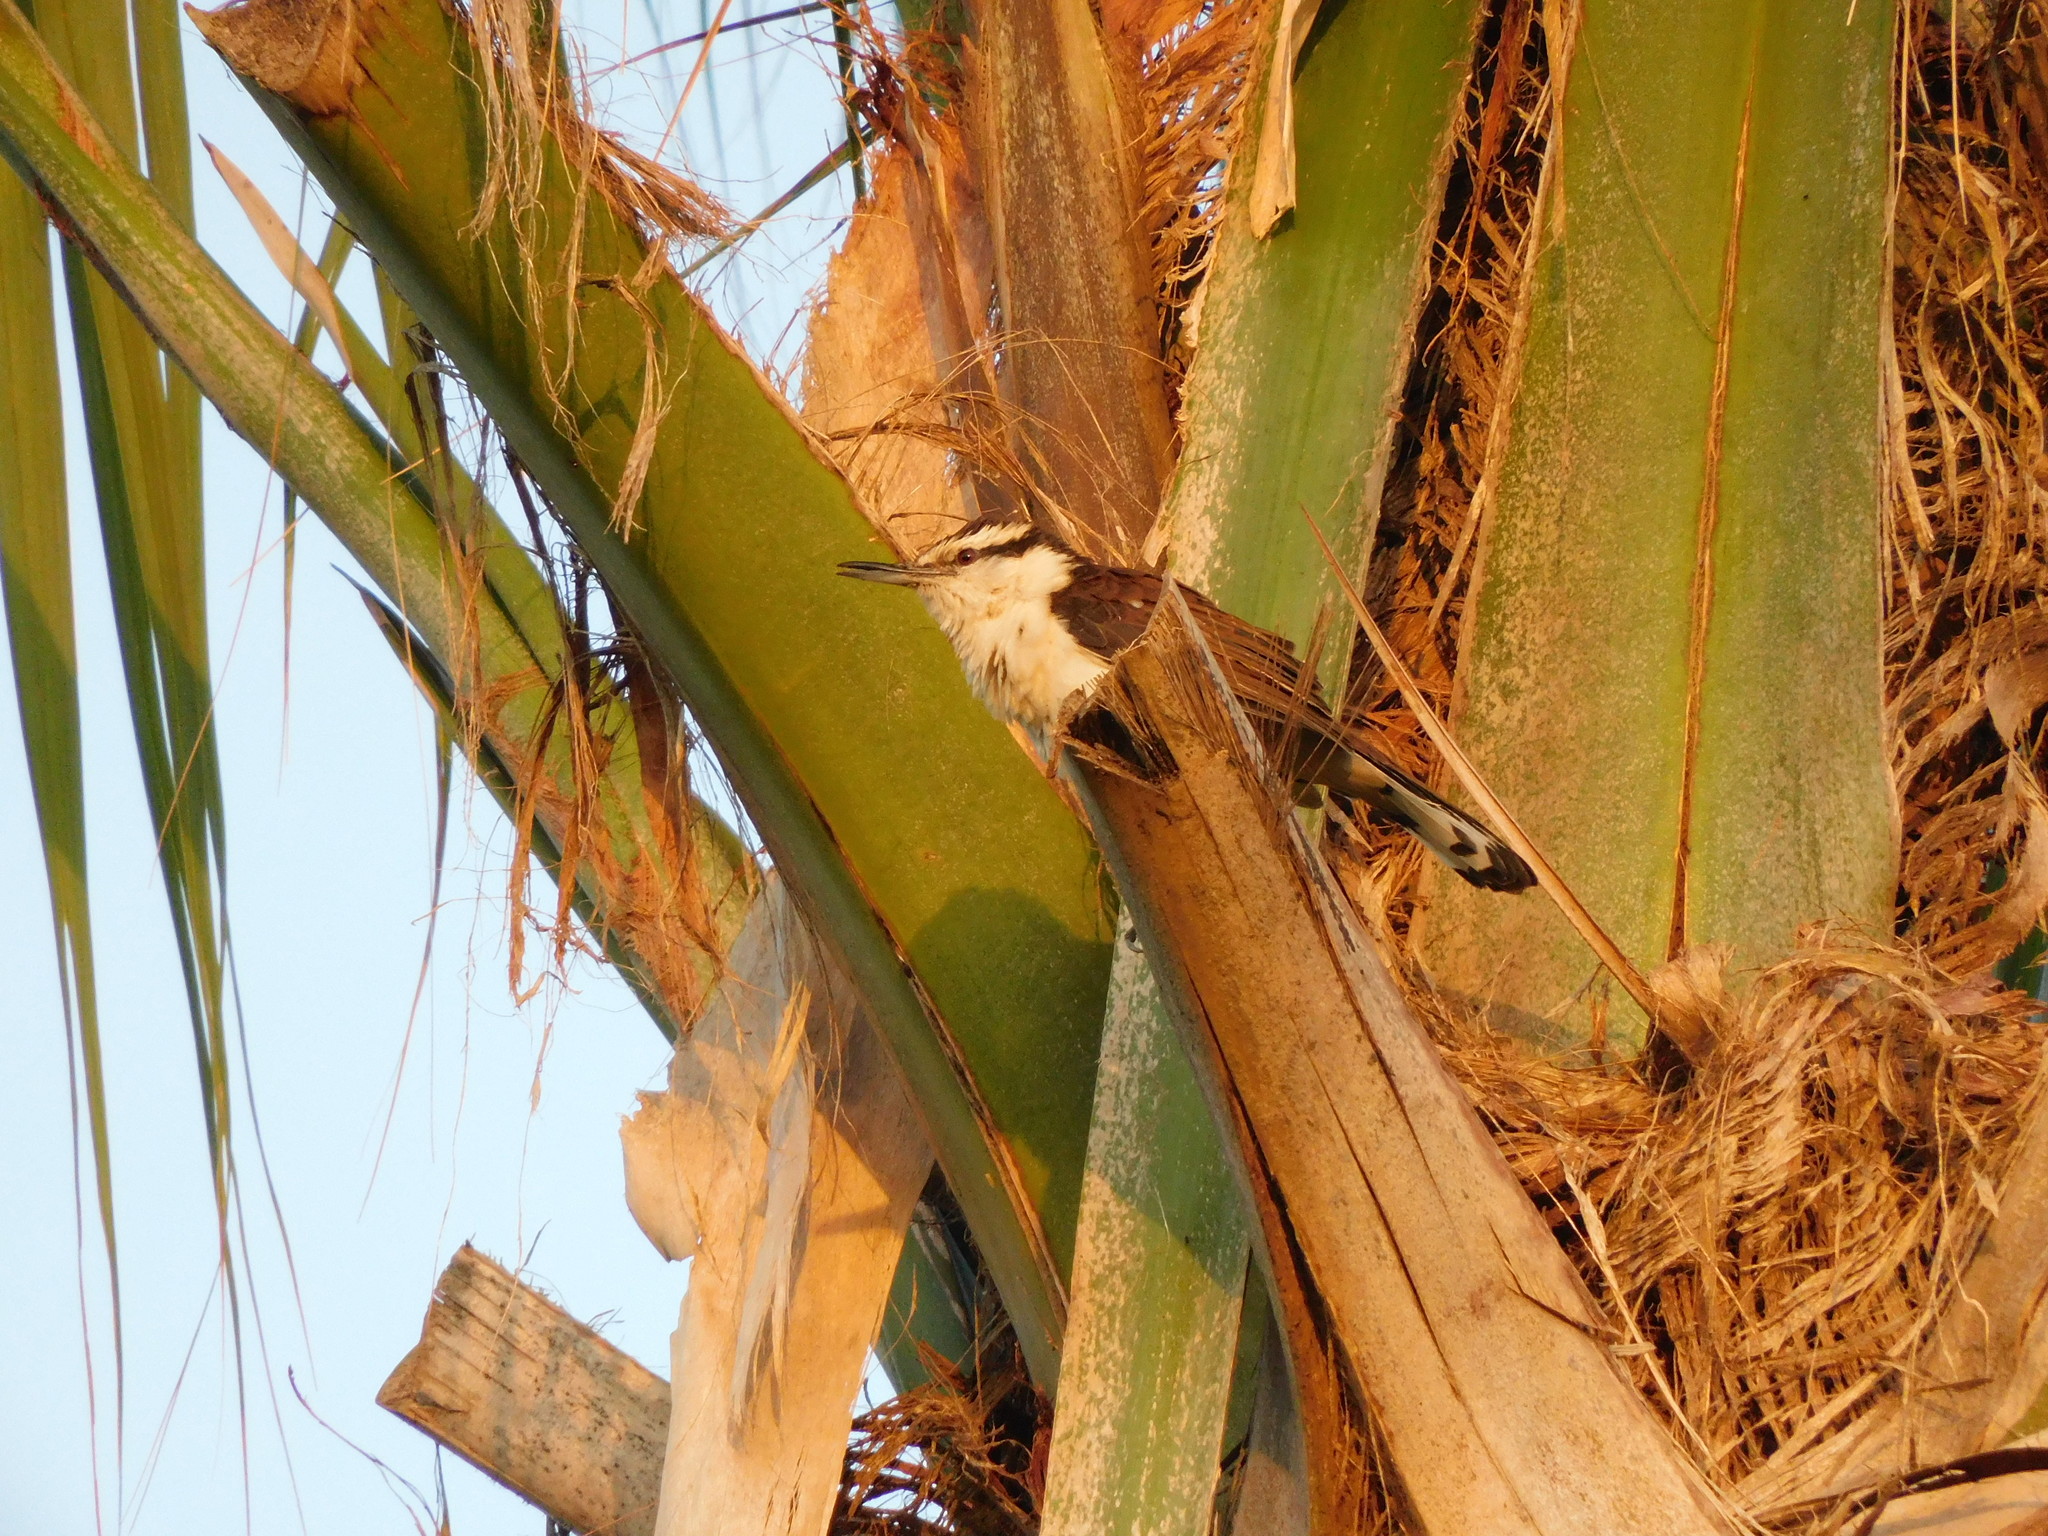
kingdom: Animalia
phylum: Chordata
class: Aves
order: Passeriformes
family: Troglodytidae
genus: Campylorhynchus
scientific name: Campylorhynchus griseus
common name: Bicolored wren
